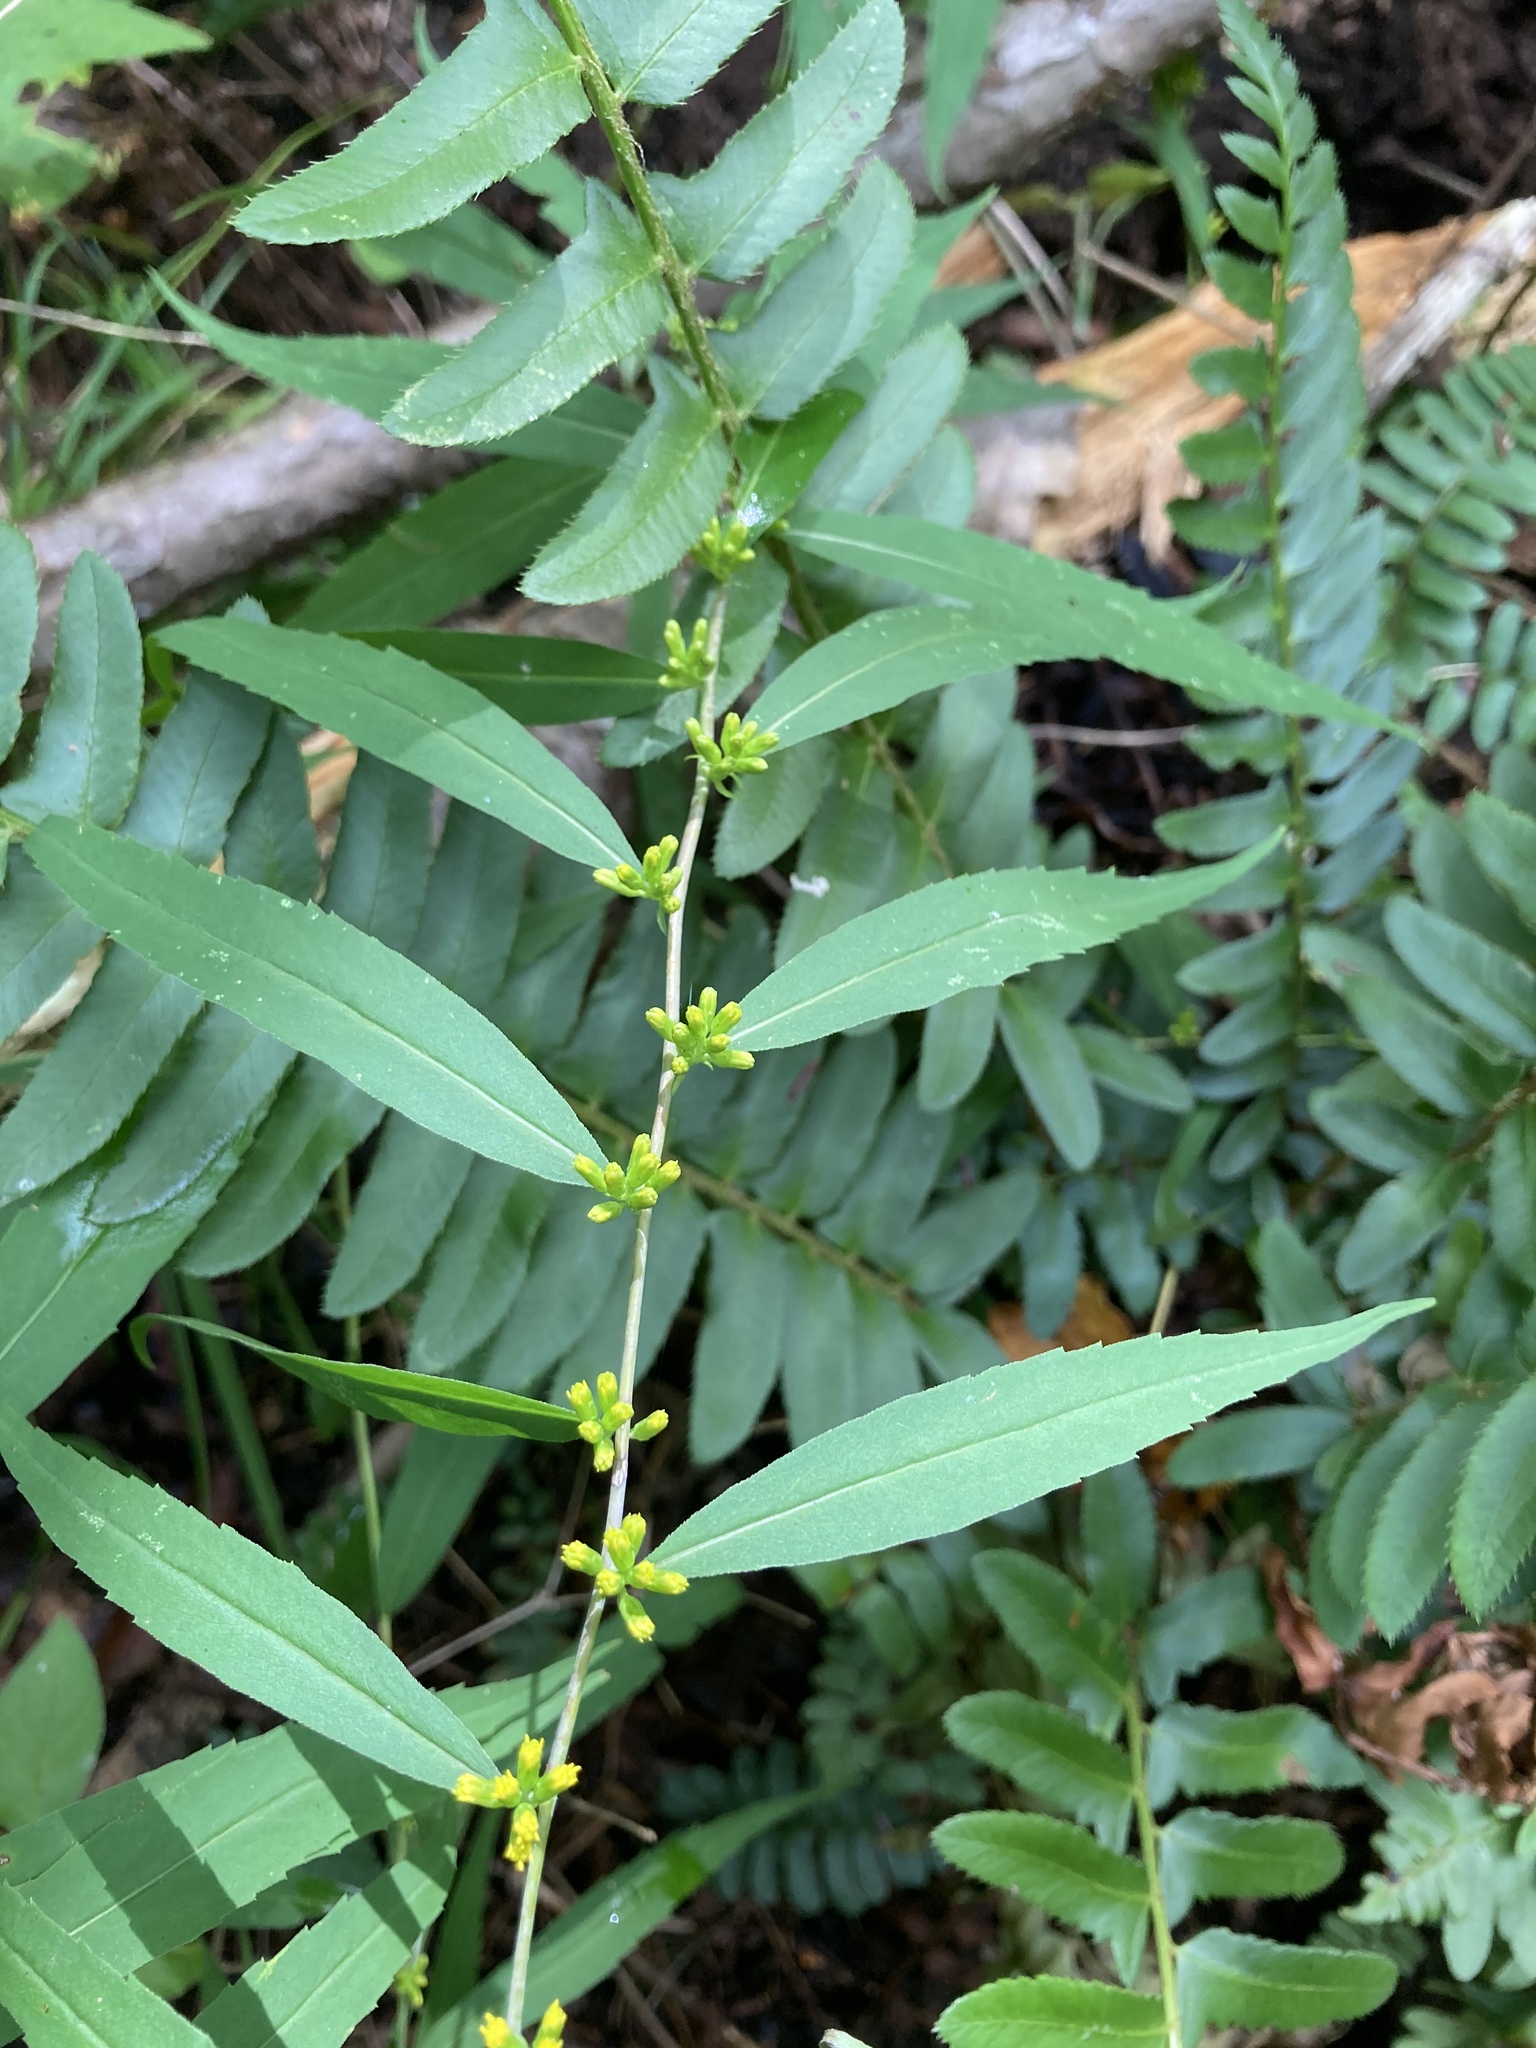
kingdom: Plantae
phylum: Tracheophyta
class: Magnoliopsida
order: Asterales
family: Asteraceae
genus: Solidago
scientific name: Solidago caesia
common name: Woodland goldenrod
